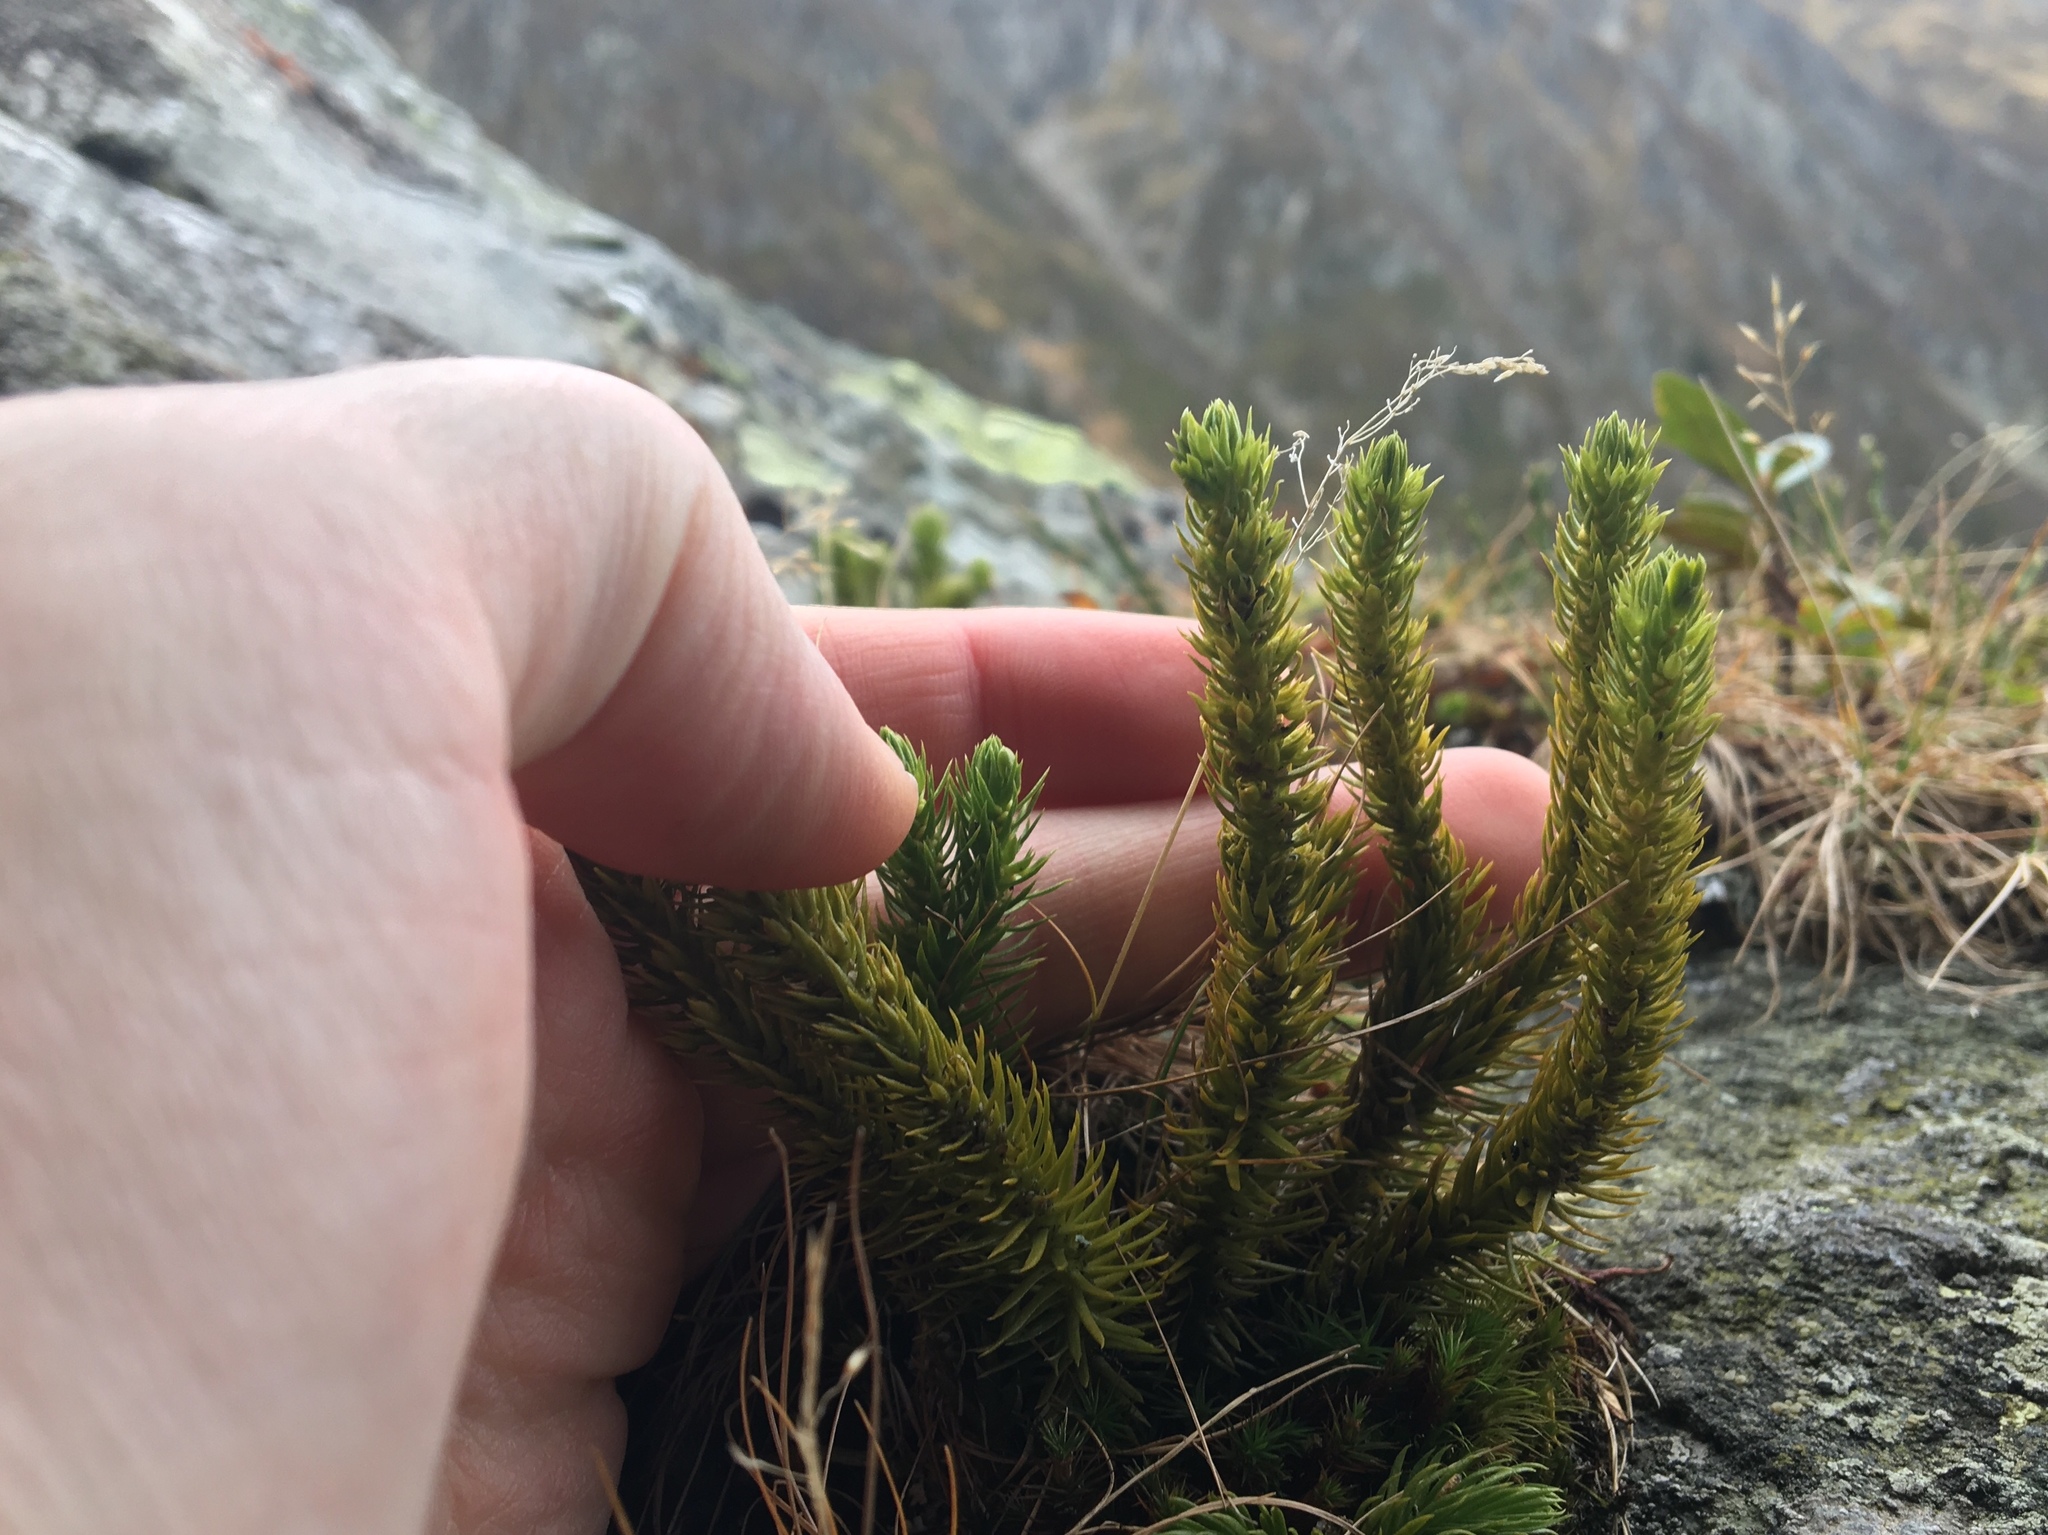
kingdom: Plantae
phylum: Tracheophyta
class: Lycopodiopsida
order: Lycopodiales
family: Lycopodiaceae
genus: Huperzia
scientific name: Huperzia selago
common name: Northern firmoss
